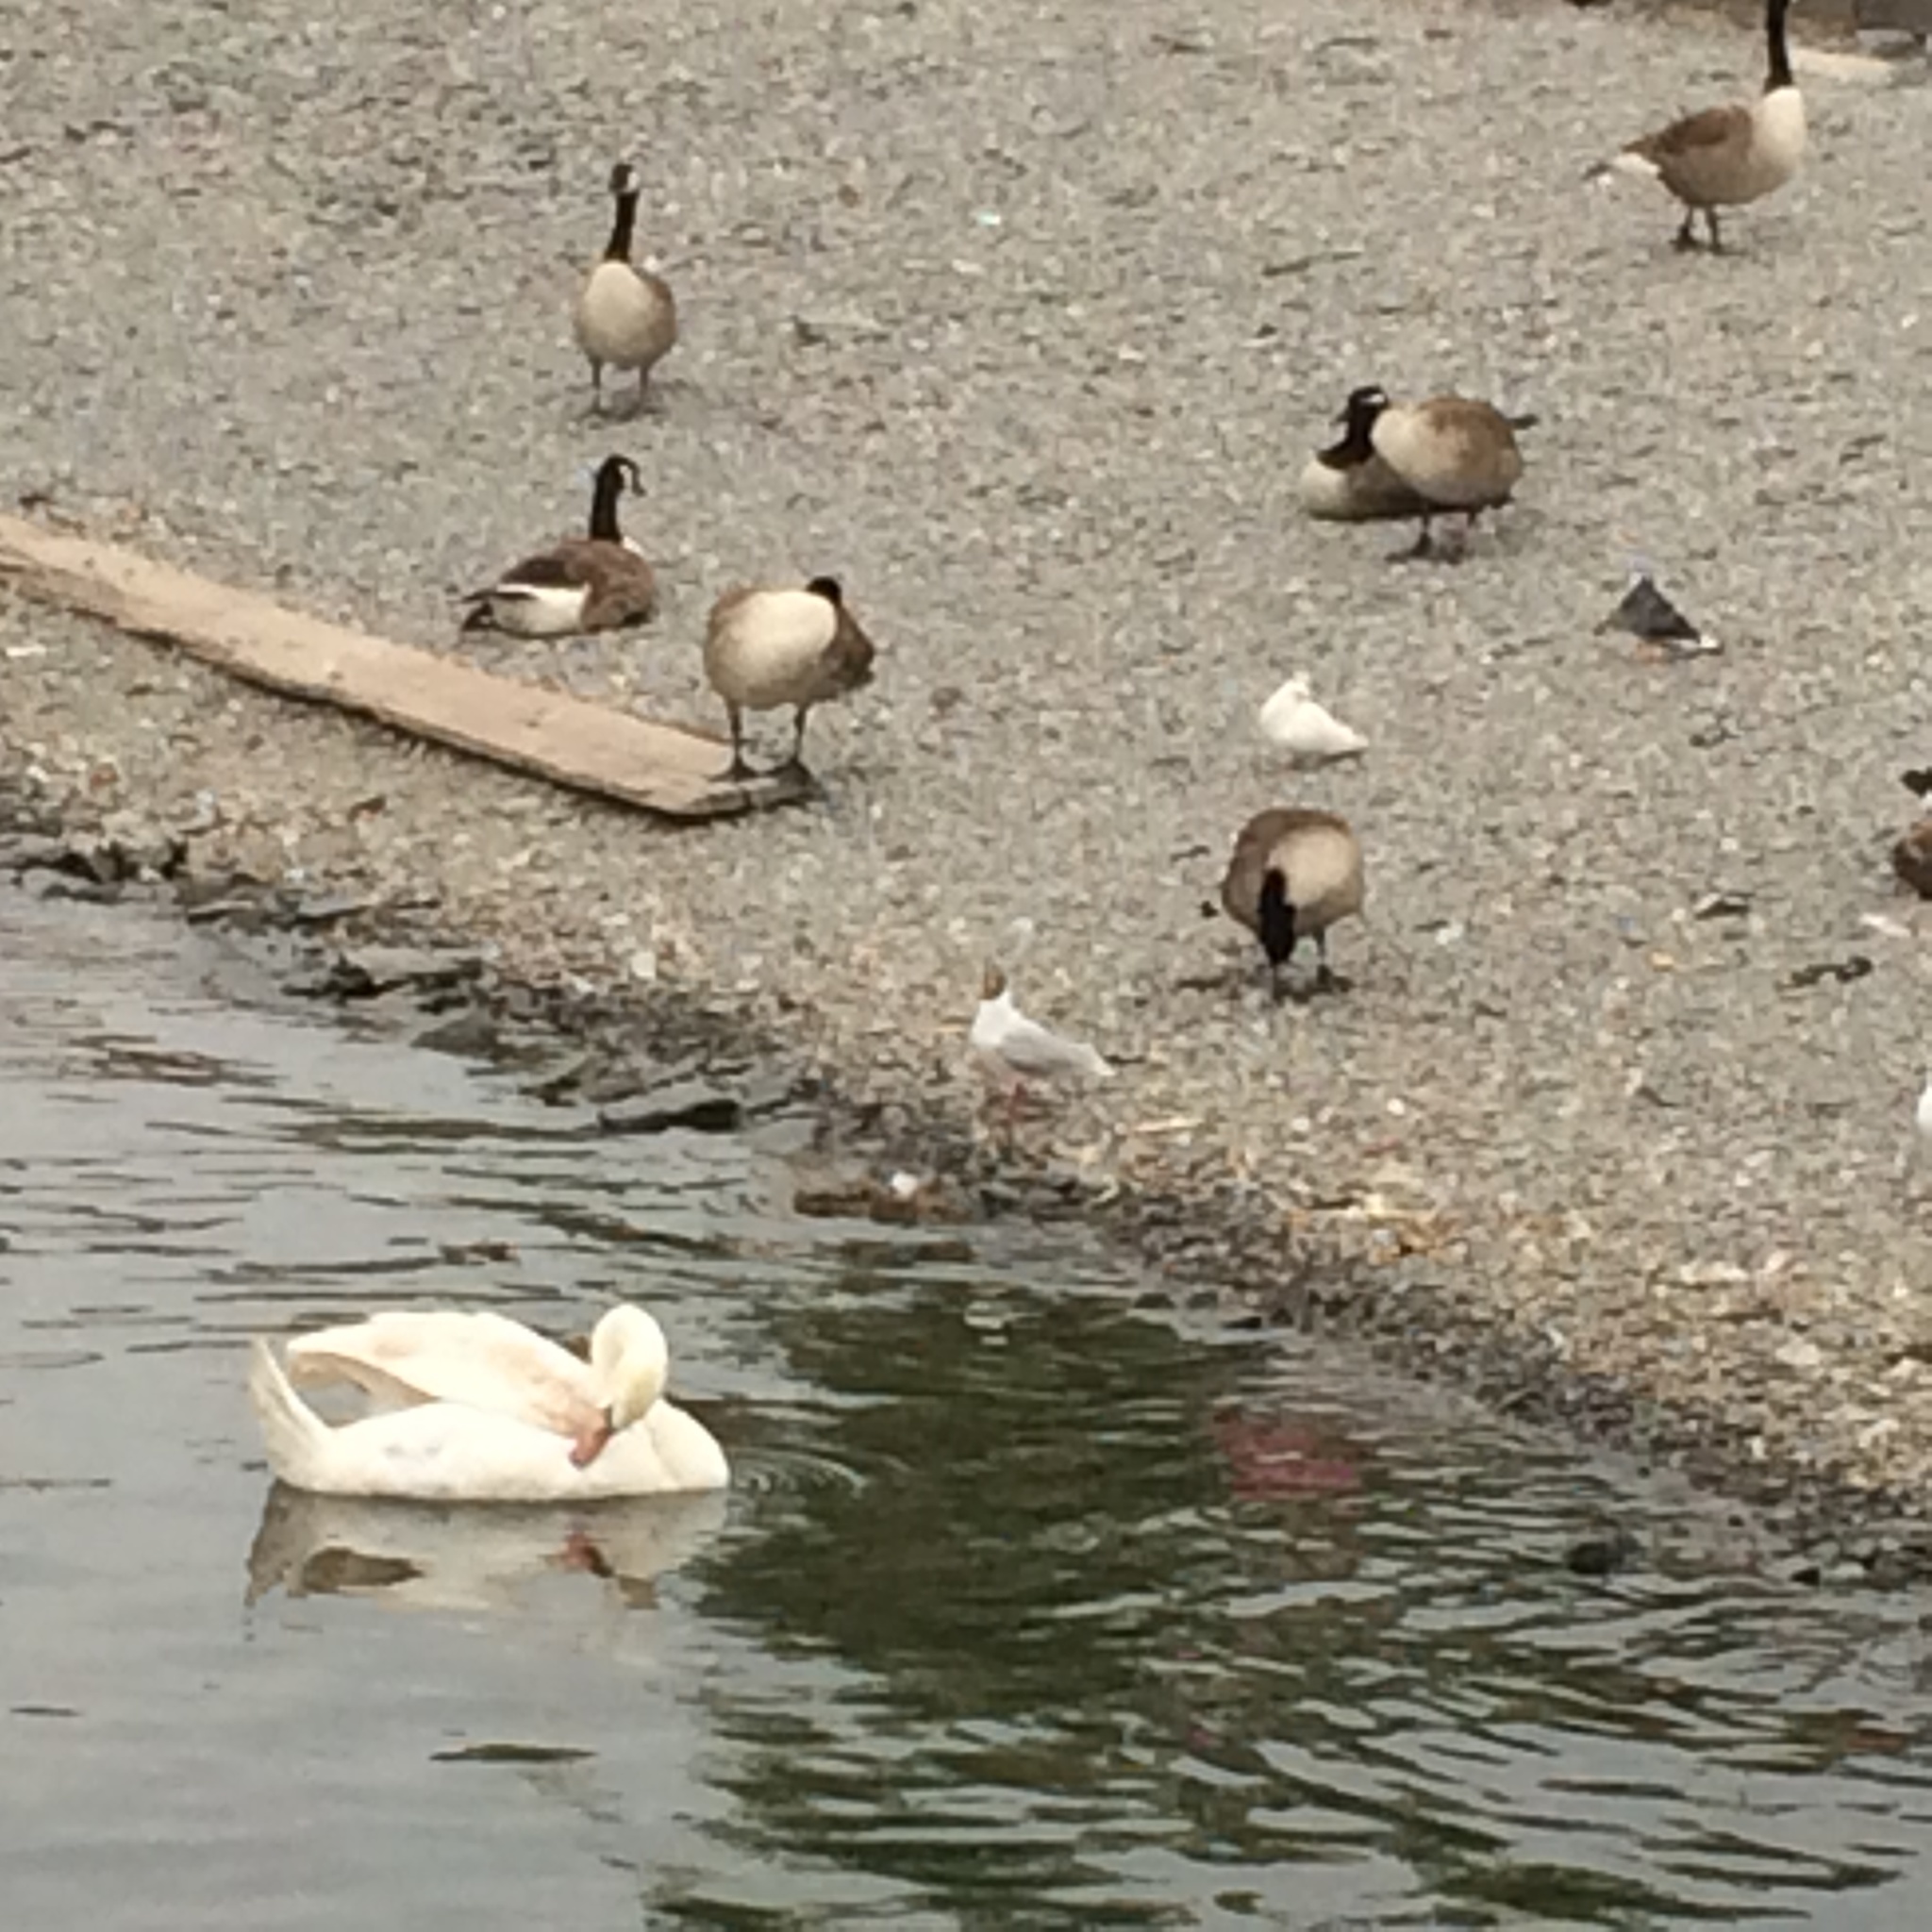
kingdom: Animalia
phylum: Chordata
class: Aves
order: Anseriformes
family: Anatidae
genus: Branta
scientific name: Branta canadensis
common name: Canada goose
